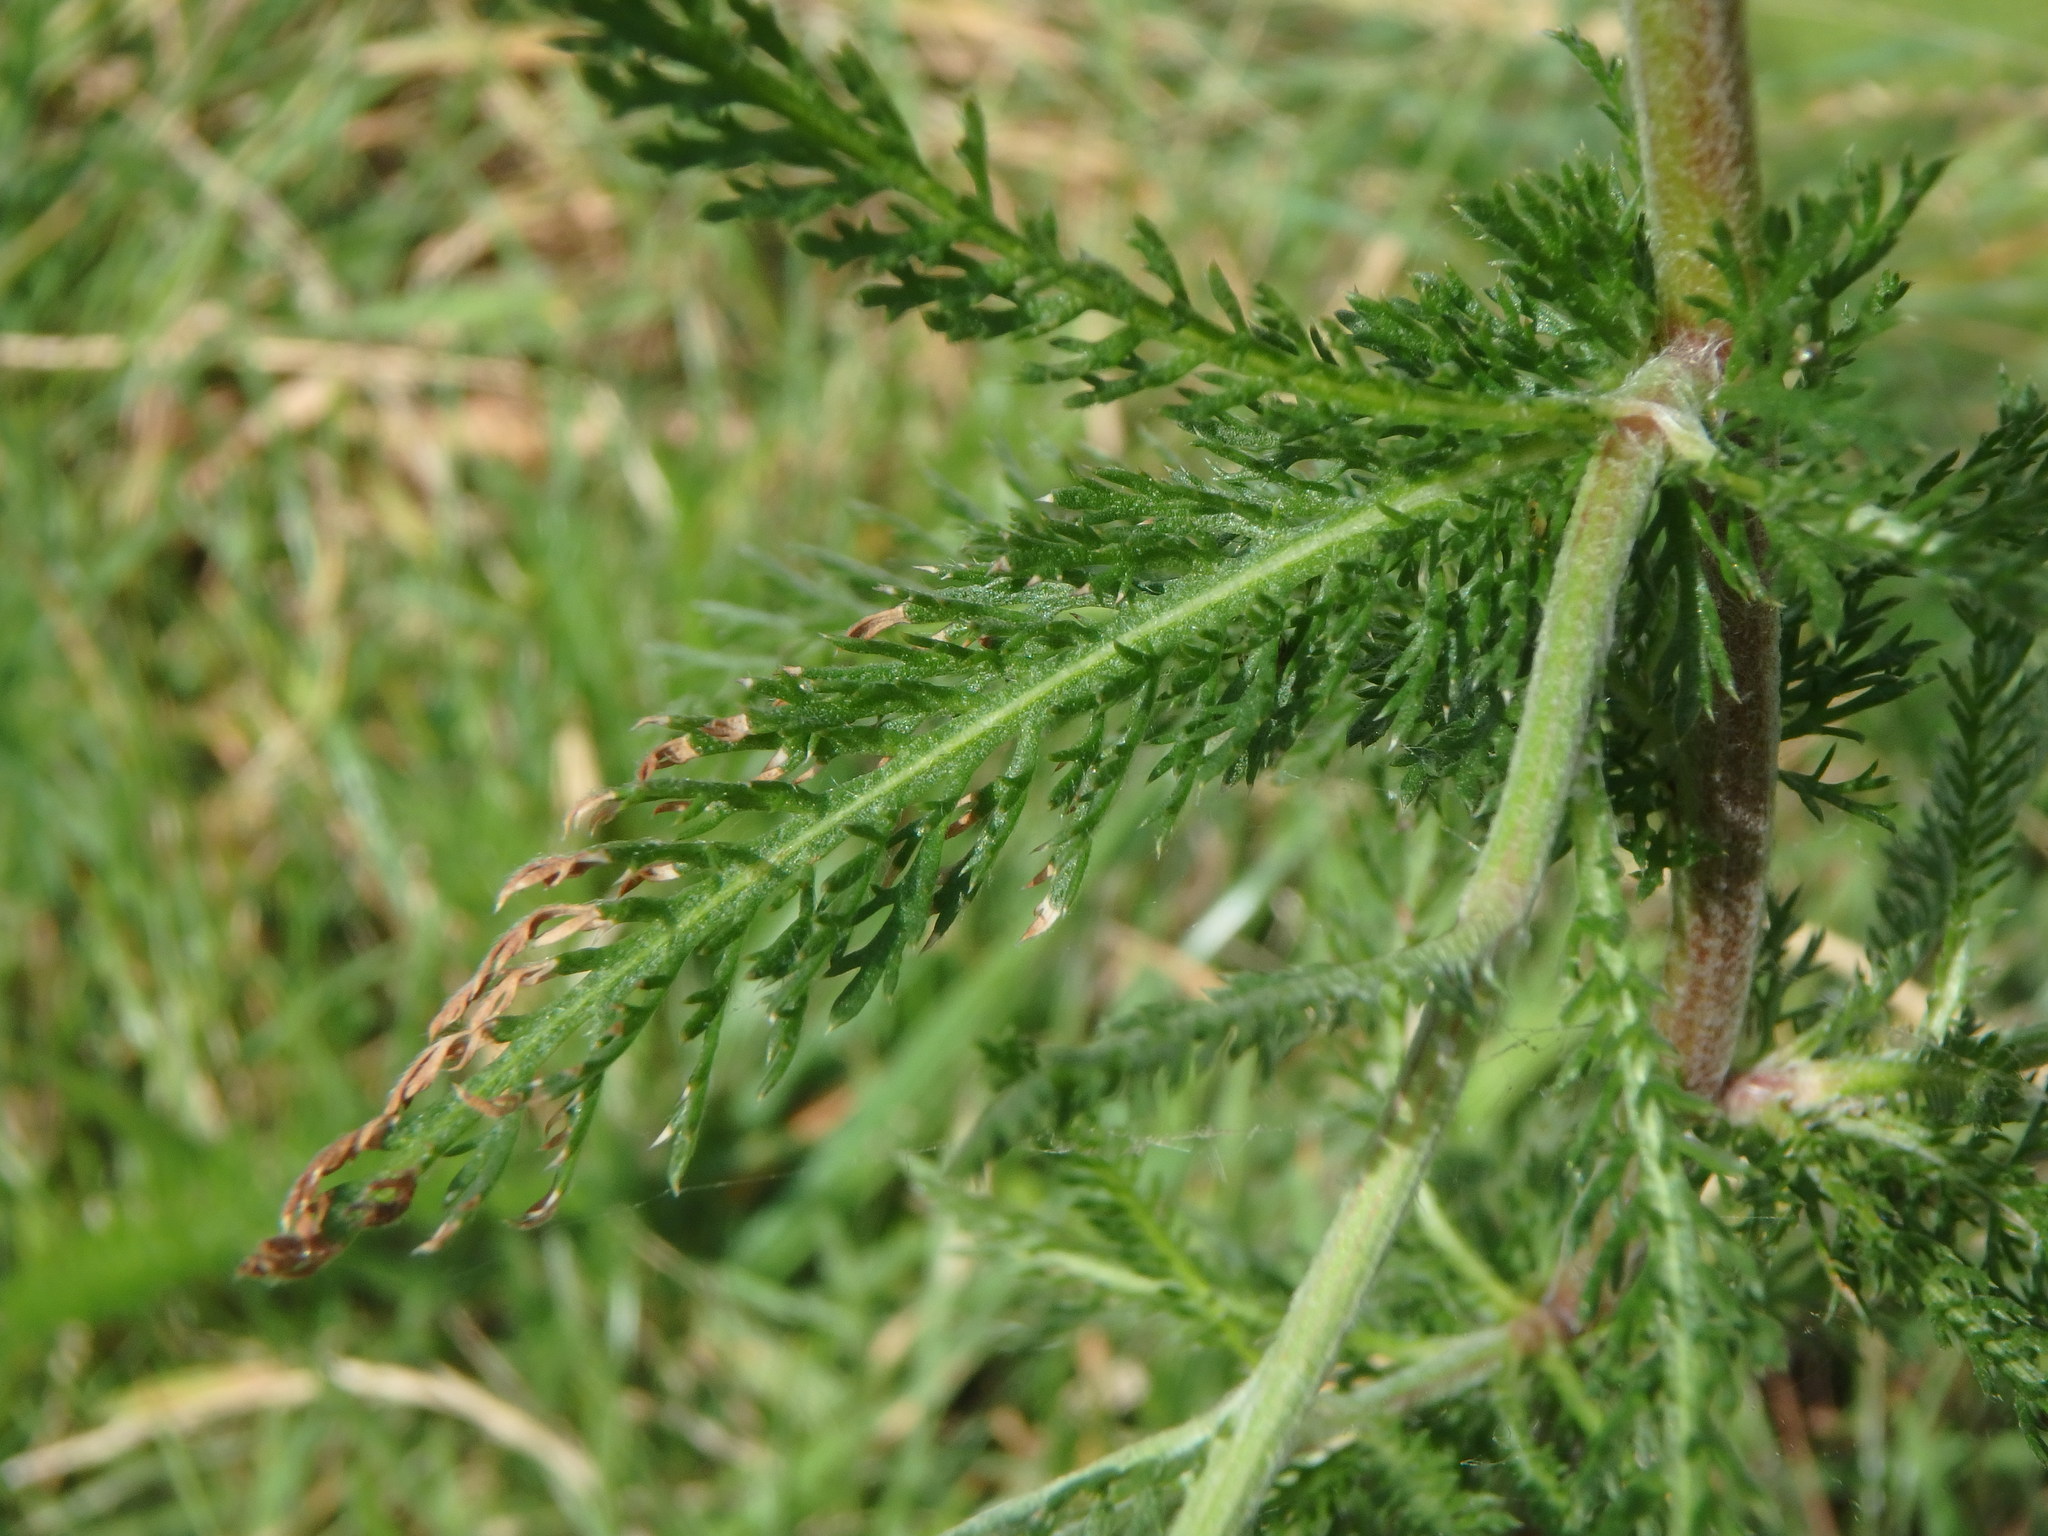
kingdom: Plantae
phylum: Tracheophyta
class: Magnoliopsida
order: Asterales
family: Asteraceae
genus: Achillea
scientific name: Achillea millefolium
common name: Yarrow
